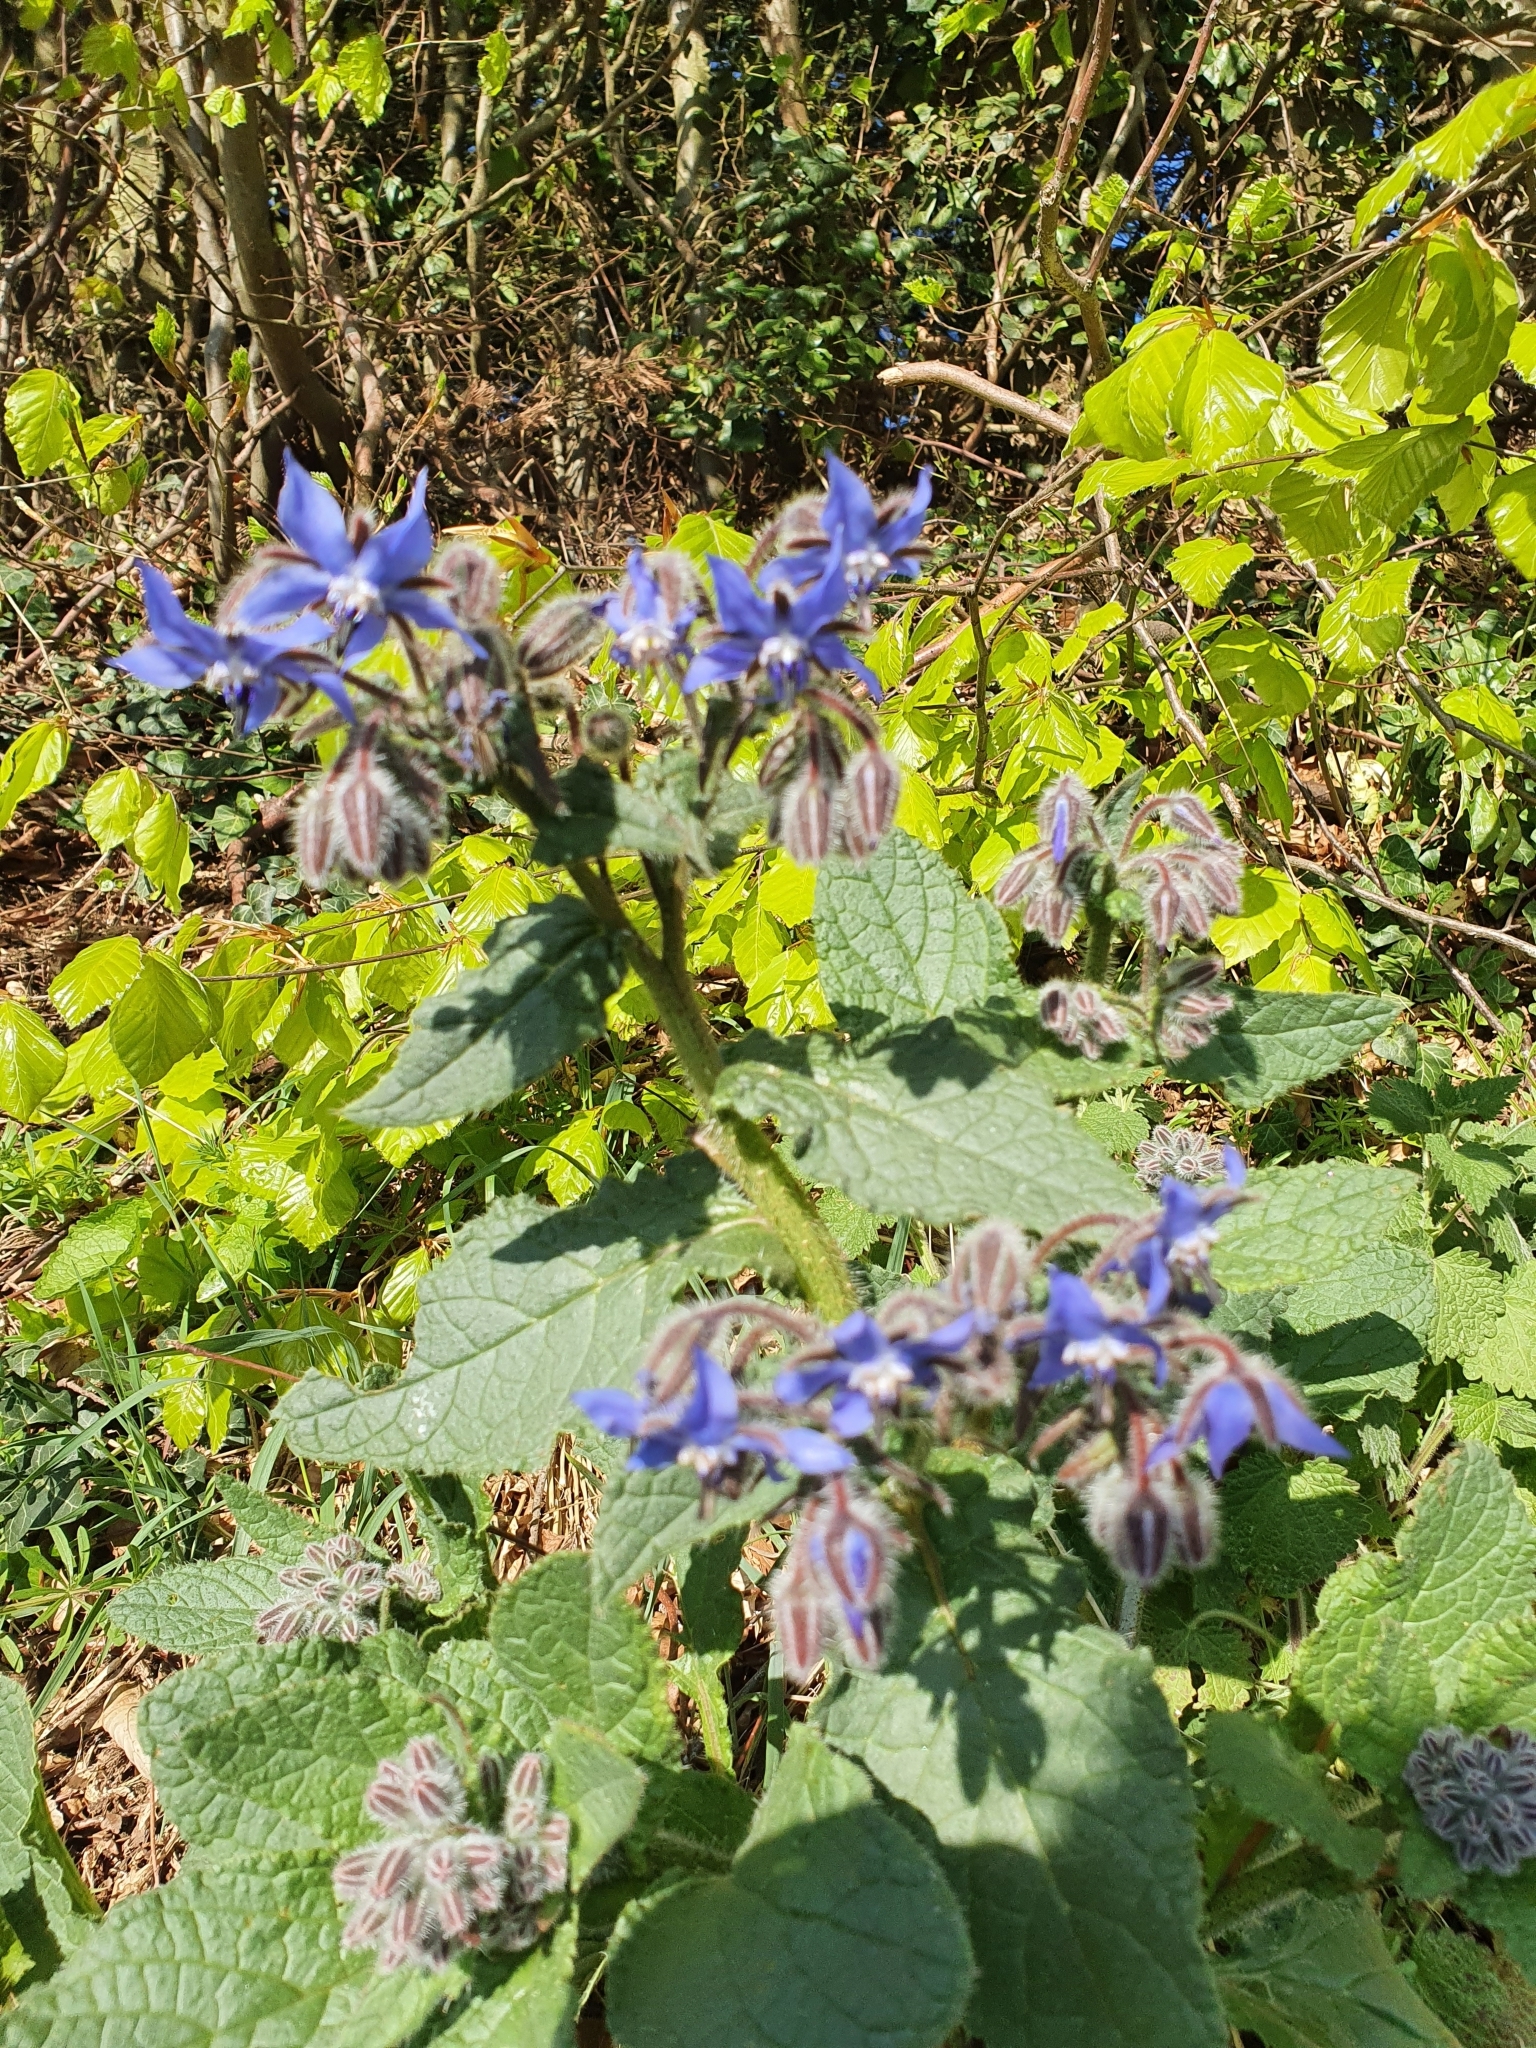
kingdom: Plantae
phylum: Tracheophyta
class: Magnoliopsida
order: Boraginales
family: Boraginaceae
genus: Borago
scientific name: Borago officinalis
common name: Borage
